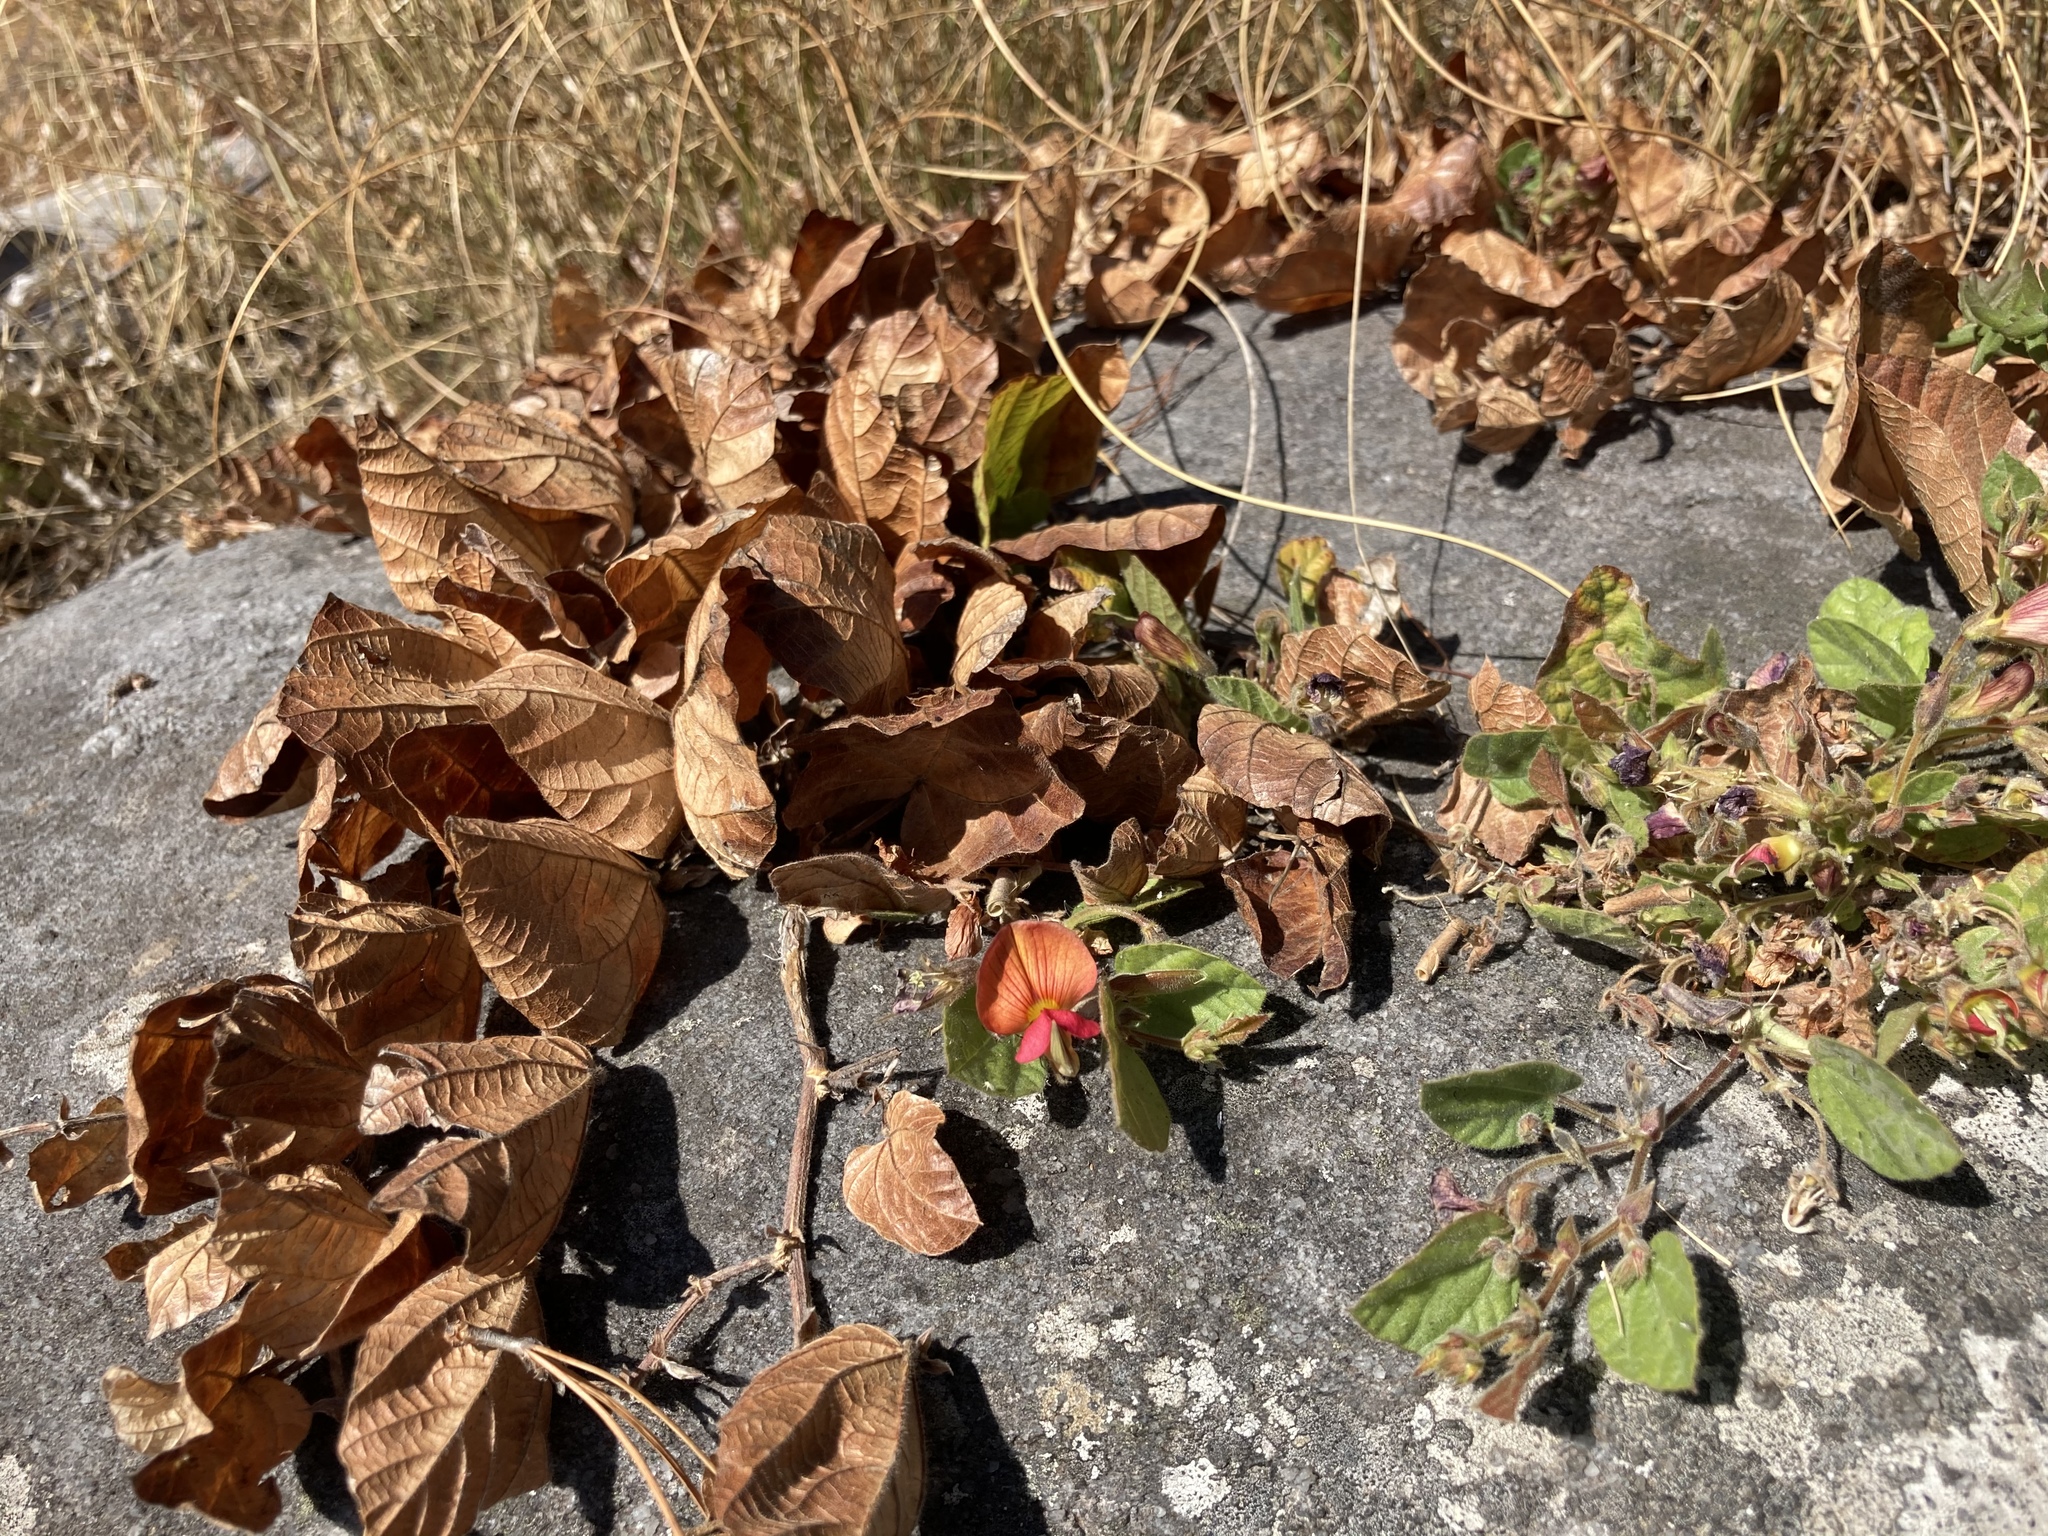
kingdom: Plantae
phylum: Tracheophyta
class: Magnoliopsida
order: Fabales
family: Fabaceae
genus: Rhynchosia
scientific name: Rhynchosia monophylla
